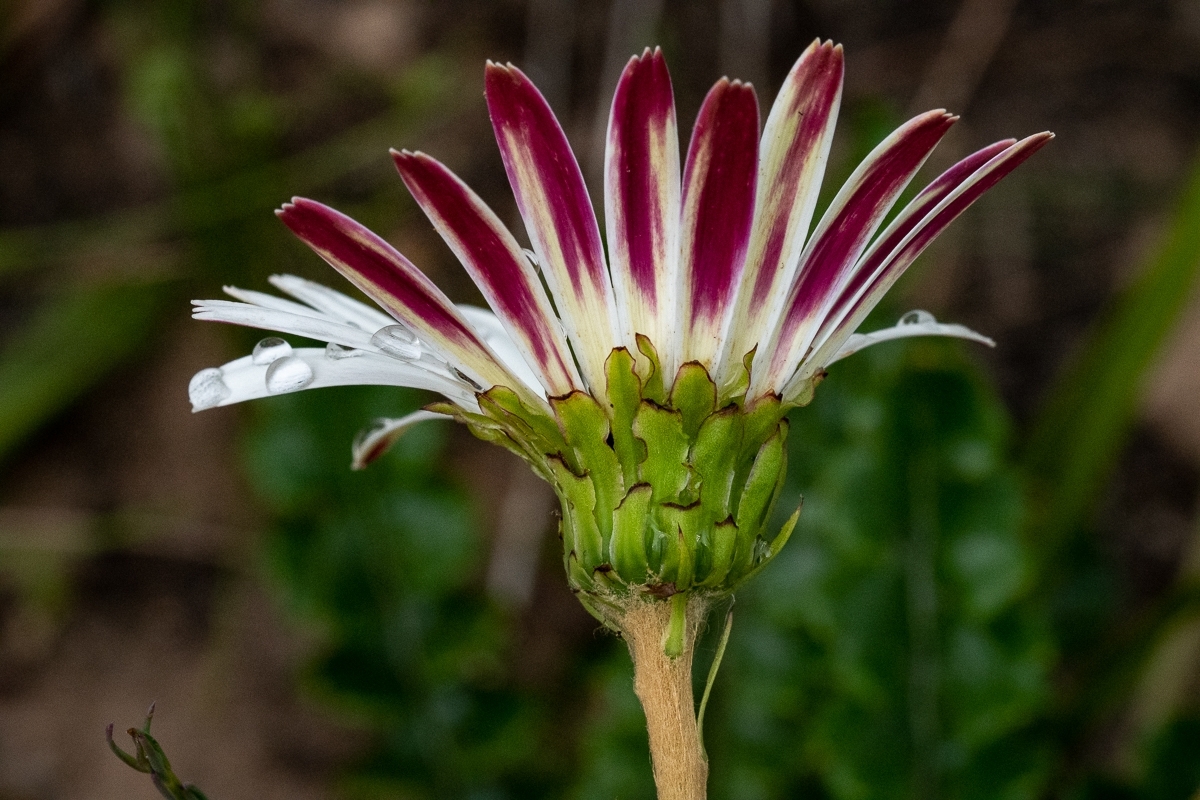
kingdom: Plantae
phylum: Tracheophyta
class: Magnoliopsida
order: Asterales
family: Asteraceae
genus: Gerbera
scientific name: Gerbera linnaei
